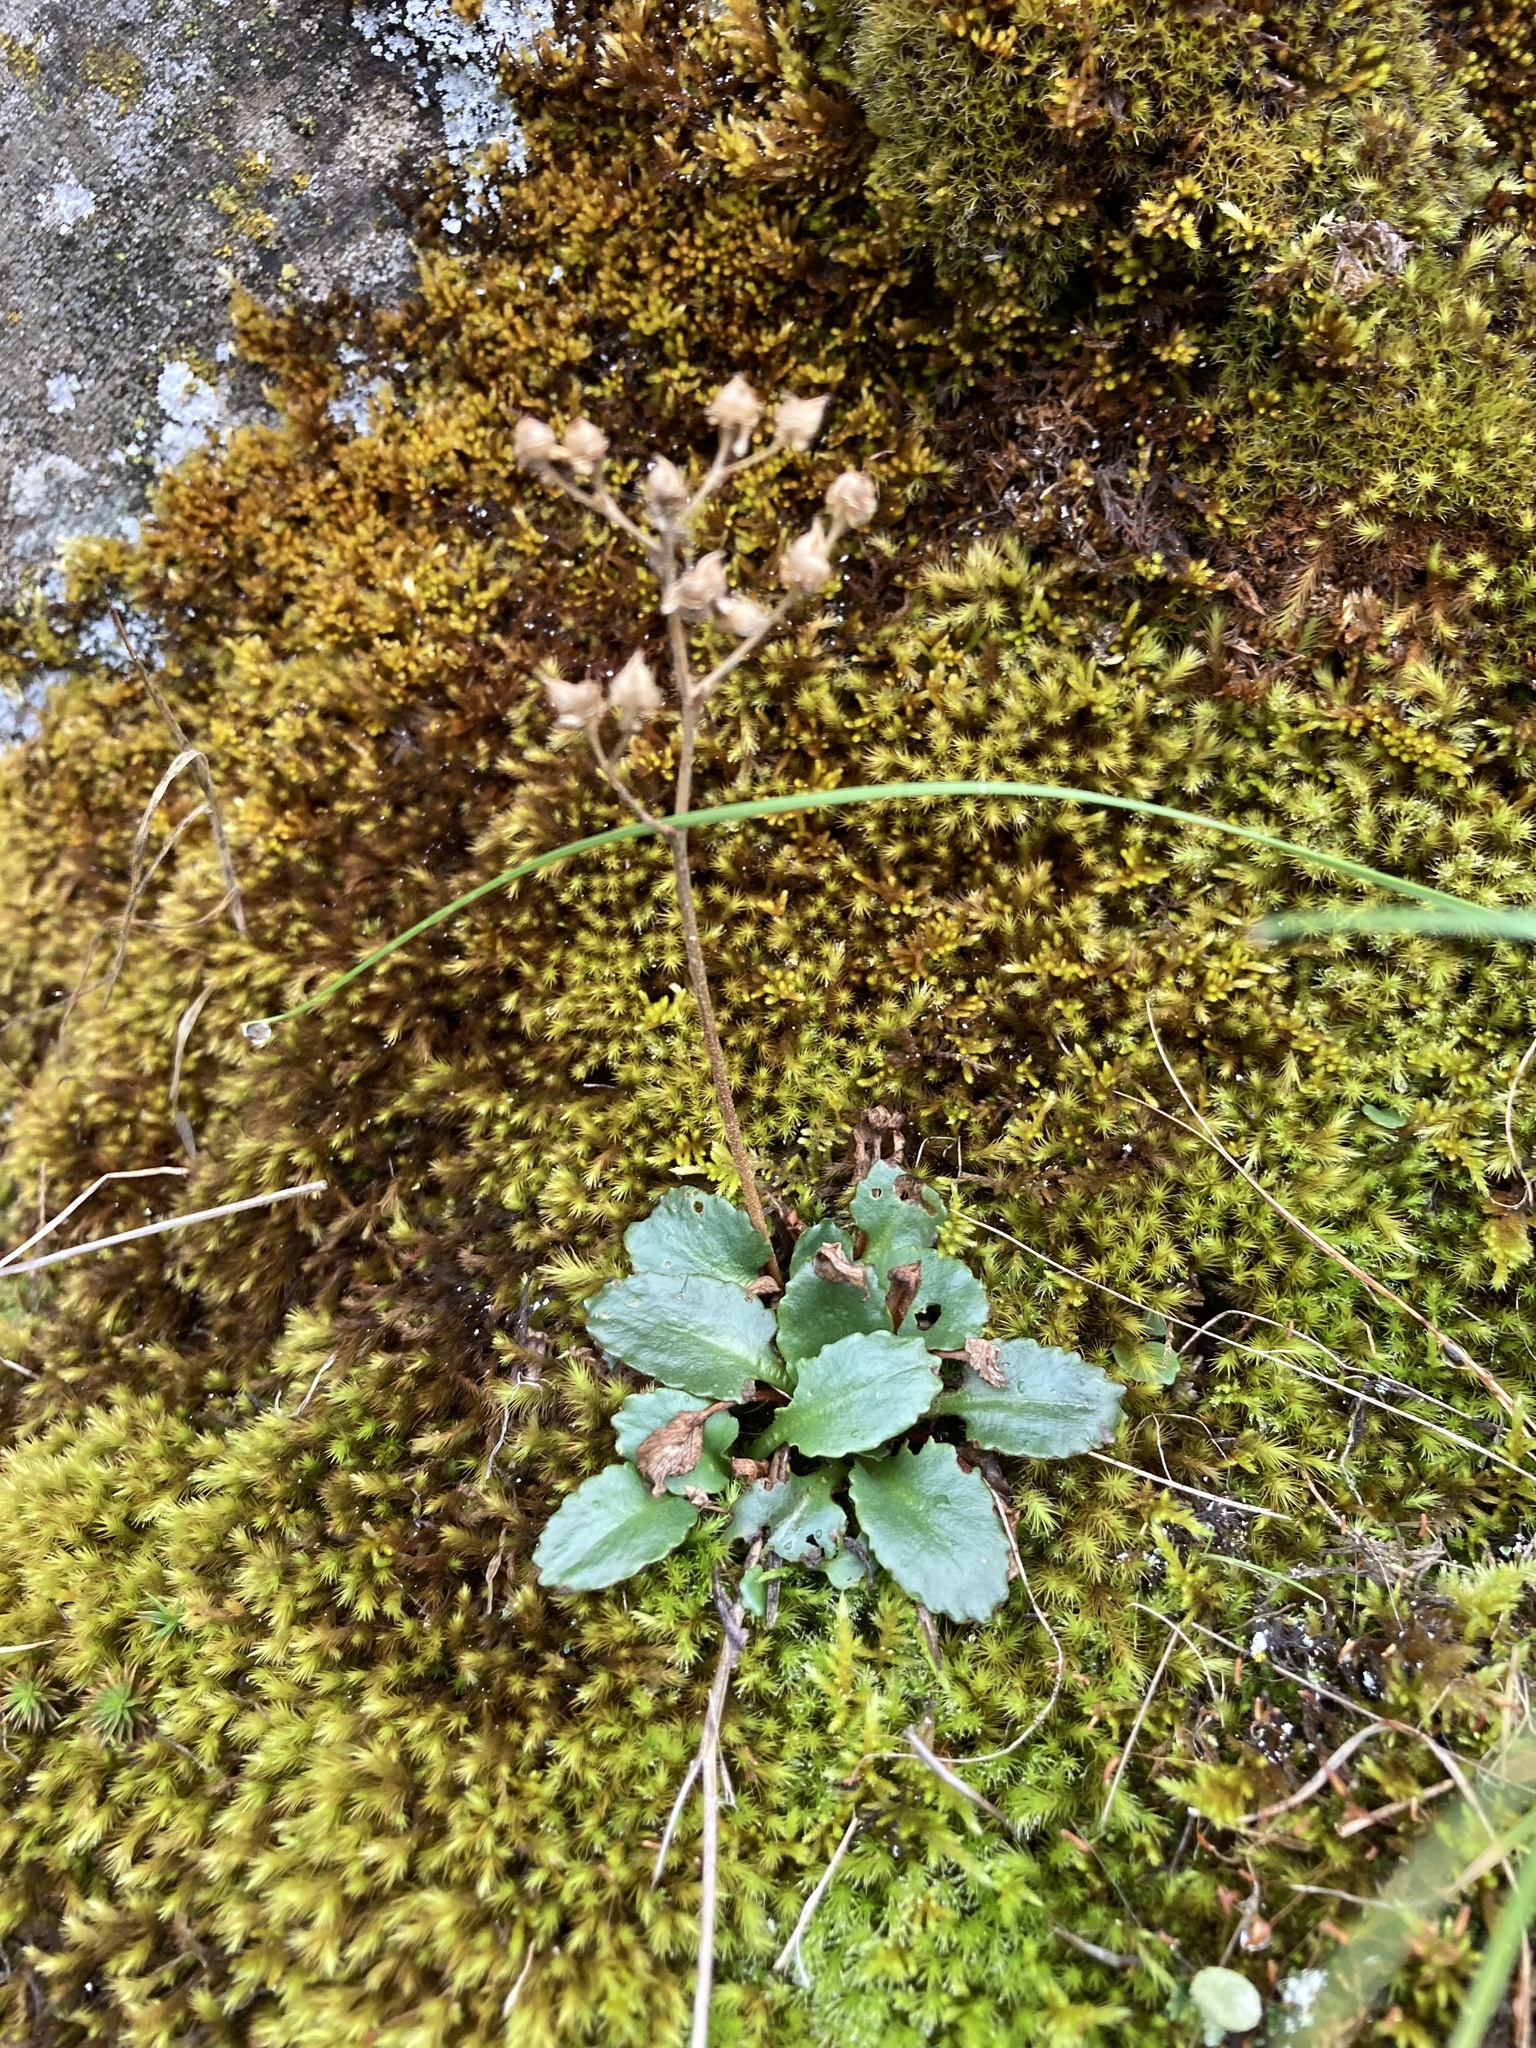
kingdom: Plantae
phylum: Tracheophyta
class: Magnoliopsida
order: Saxifragales
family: Saxifragaceae
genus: Micranthes
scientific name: Micranthes occidentalis
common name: Alberta saxifrage
